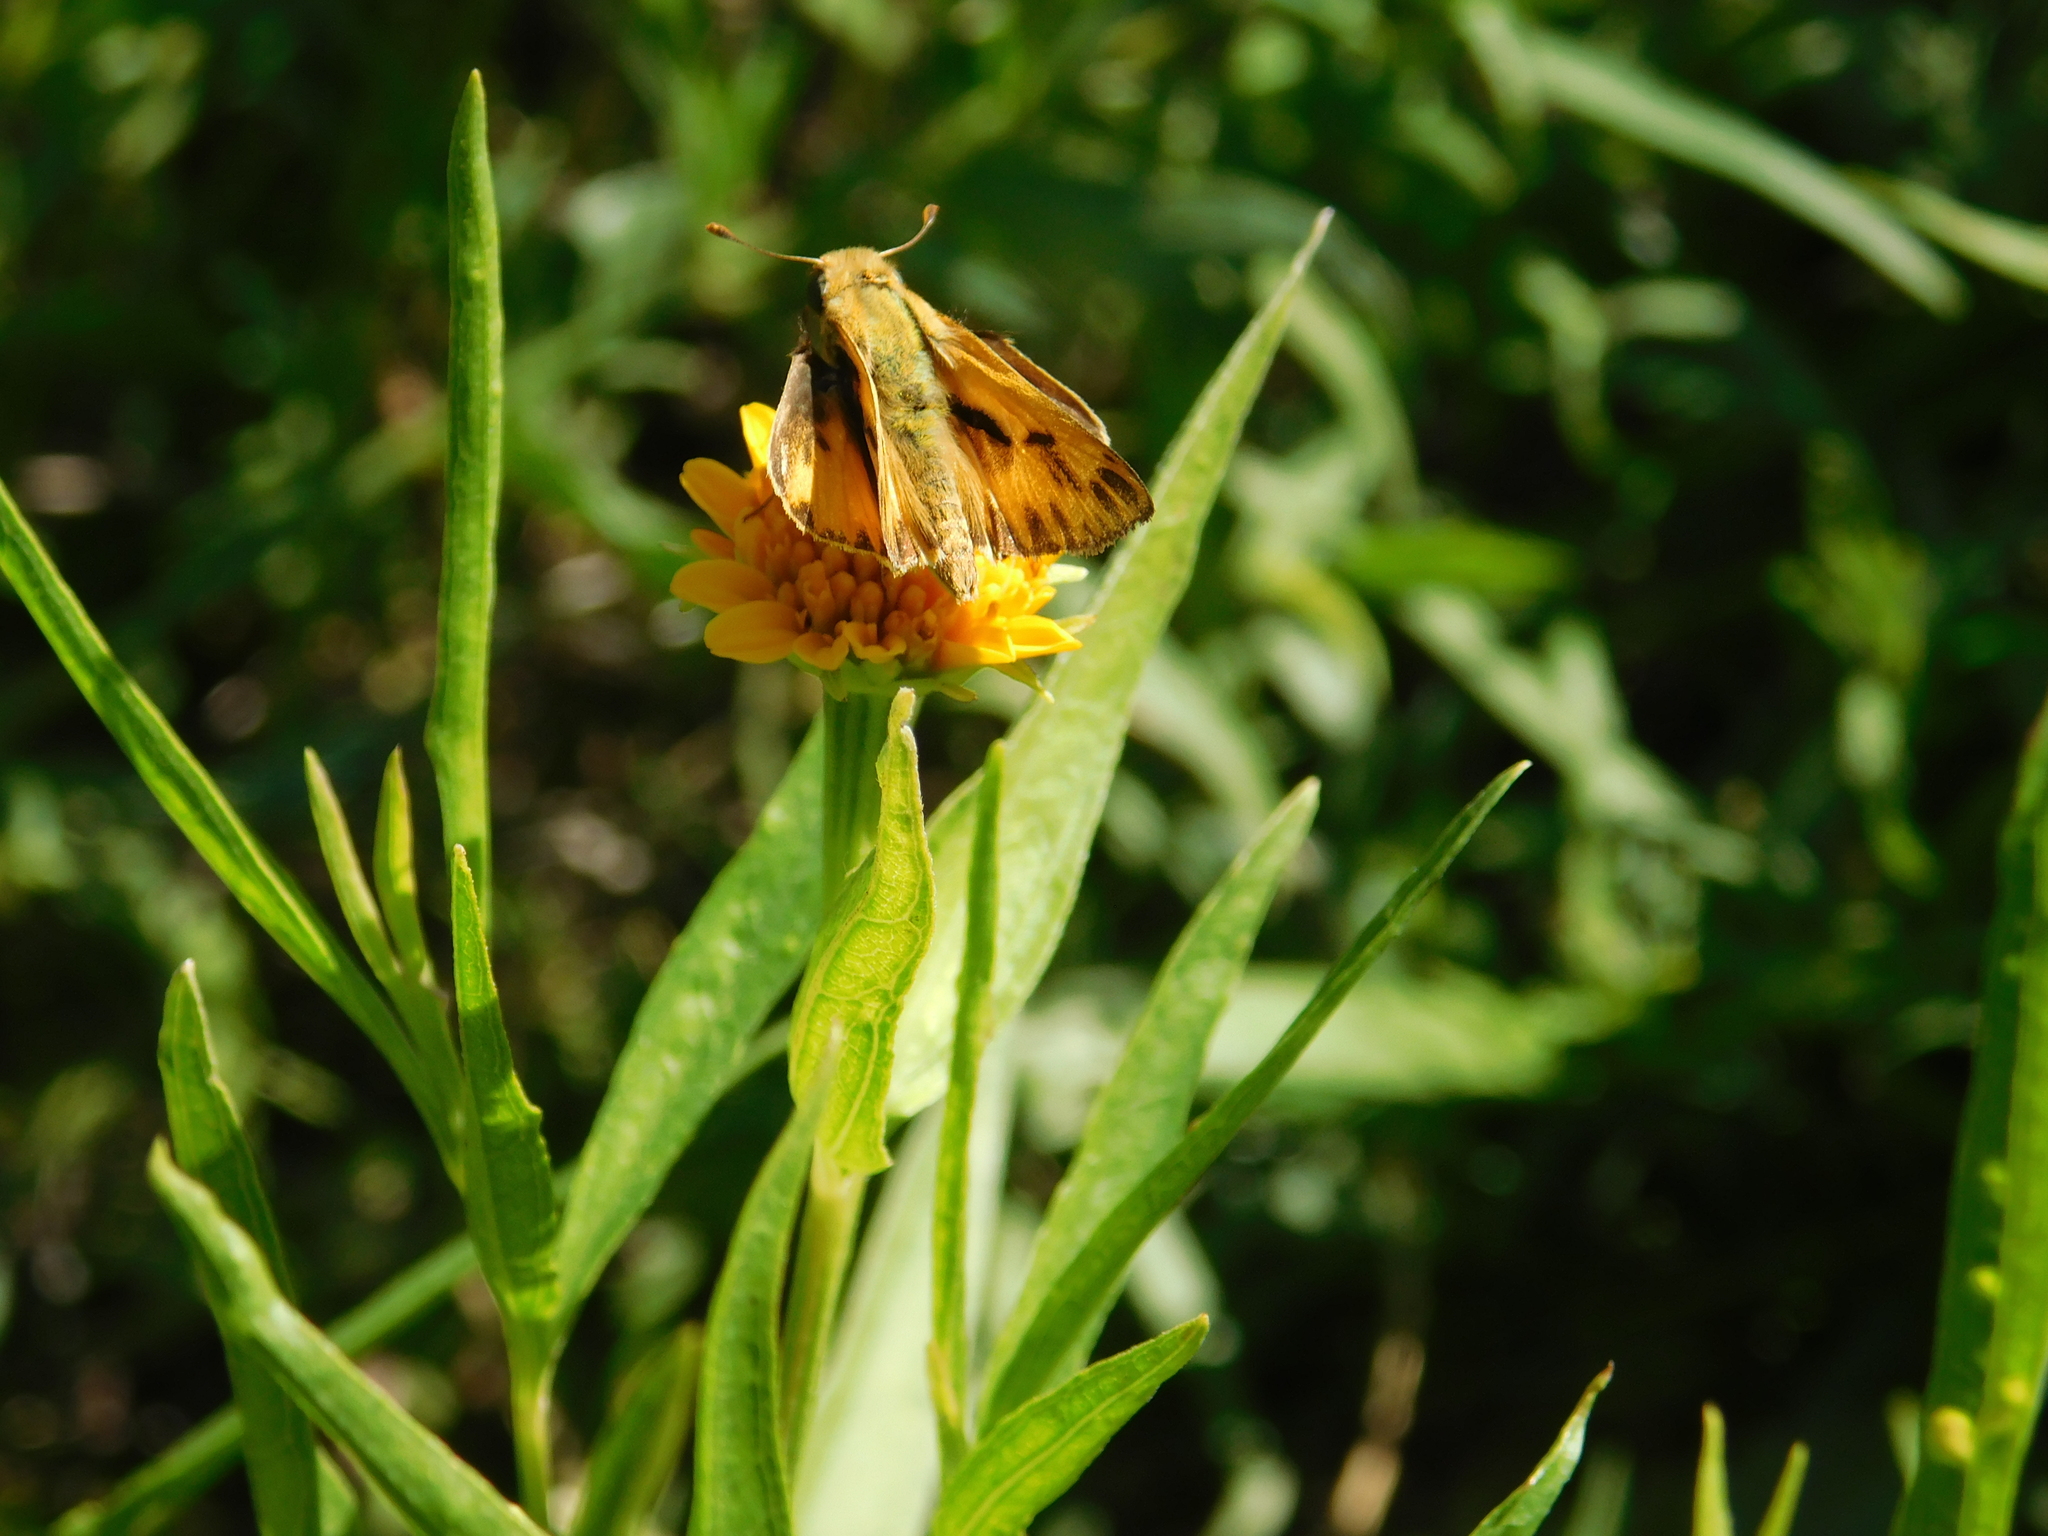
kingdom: Animalia
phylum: Arthropoda
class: Insecta
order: Lepidoptera
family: Hesperiidae
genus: Hylephila
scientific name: Hylephila phyleus
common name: Fiery skipper
